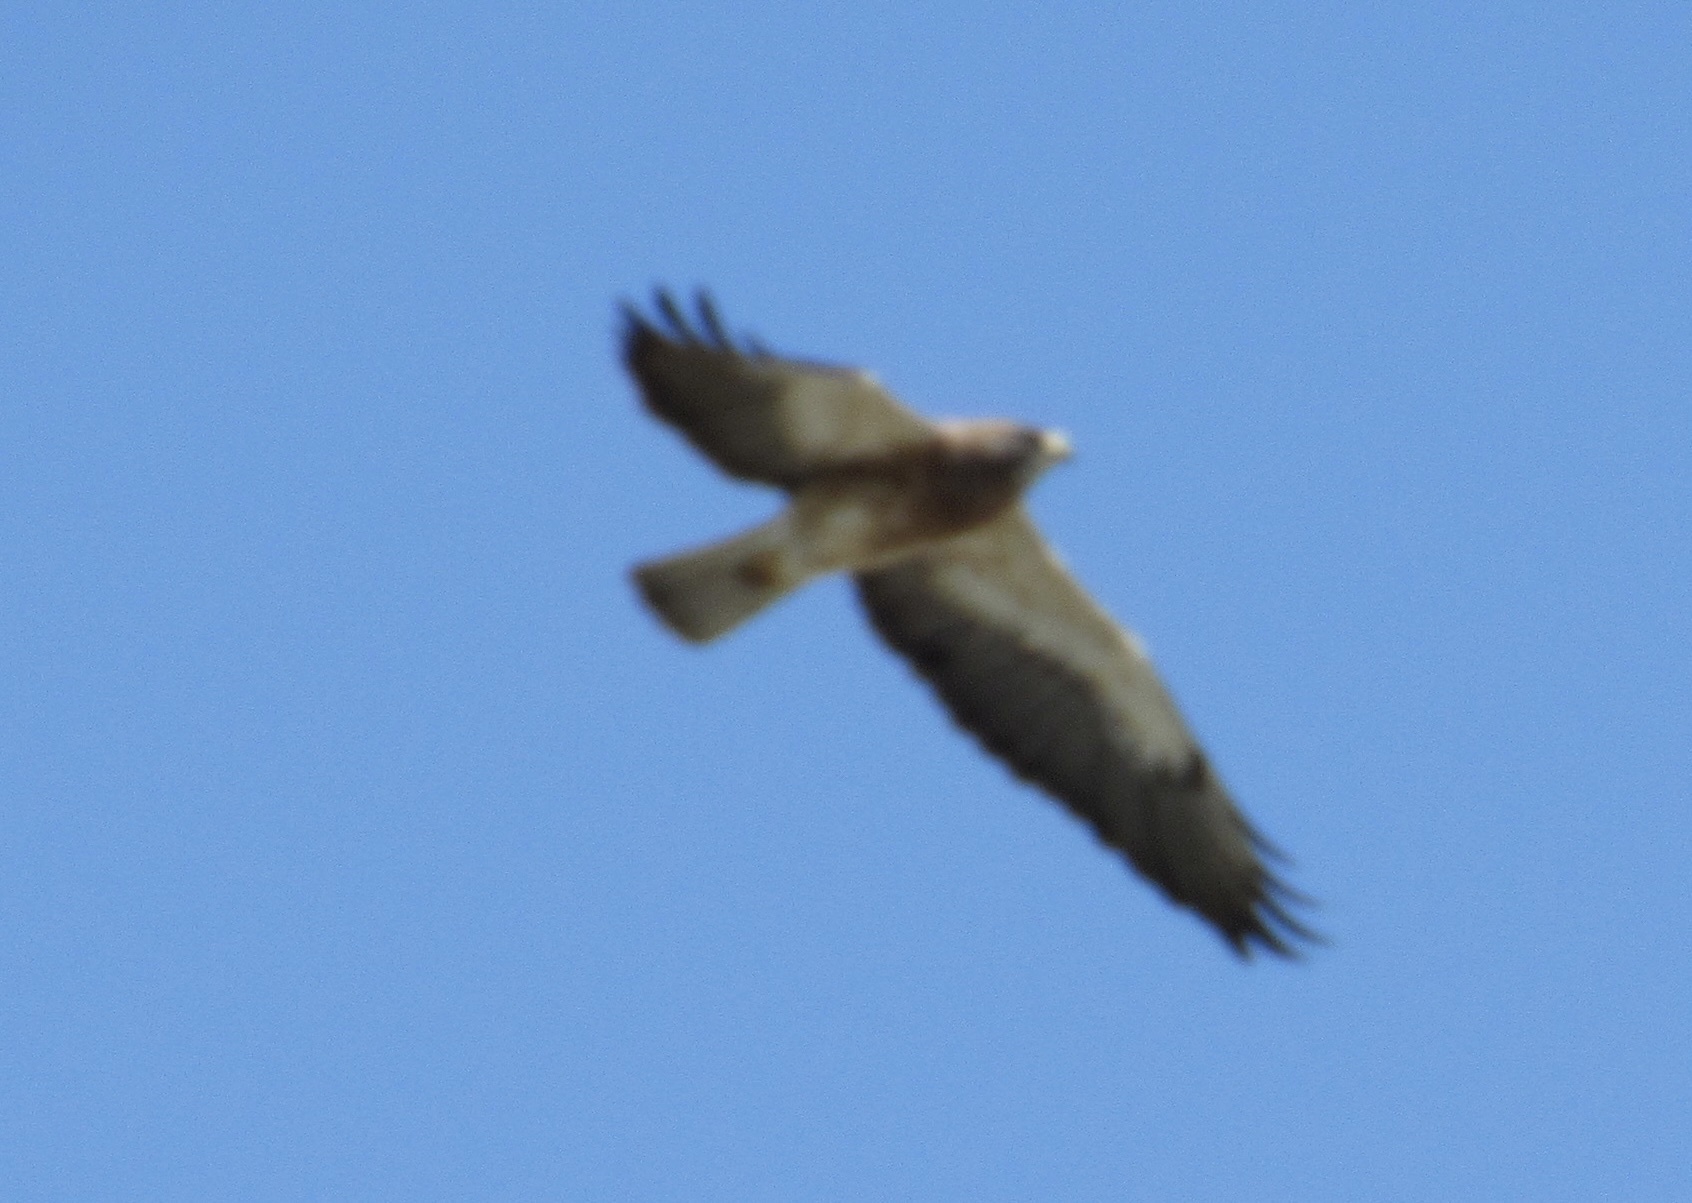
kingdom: Animalia
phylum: Chordata
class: Aves
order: Accipitriformes
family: Accipitridae
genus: Buteo
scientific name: Buteo swainsoni
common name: Swainson's hawk
